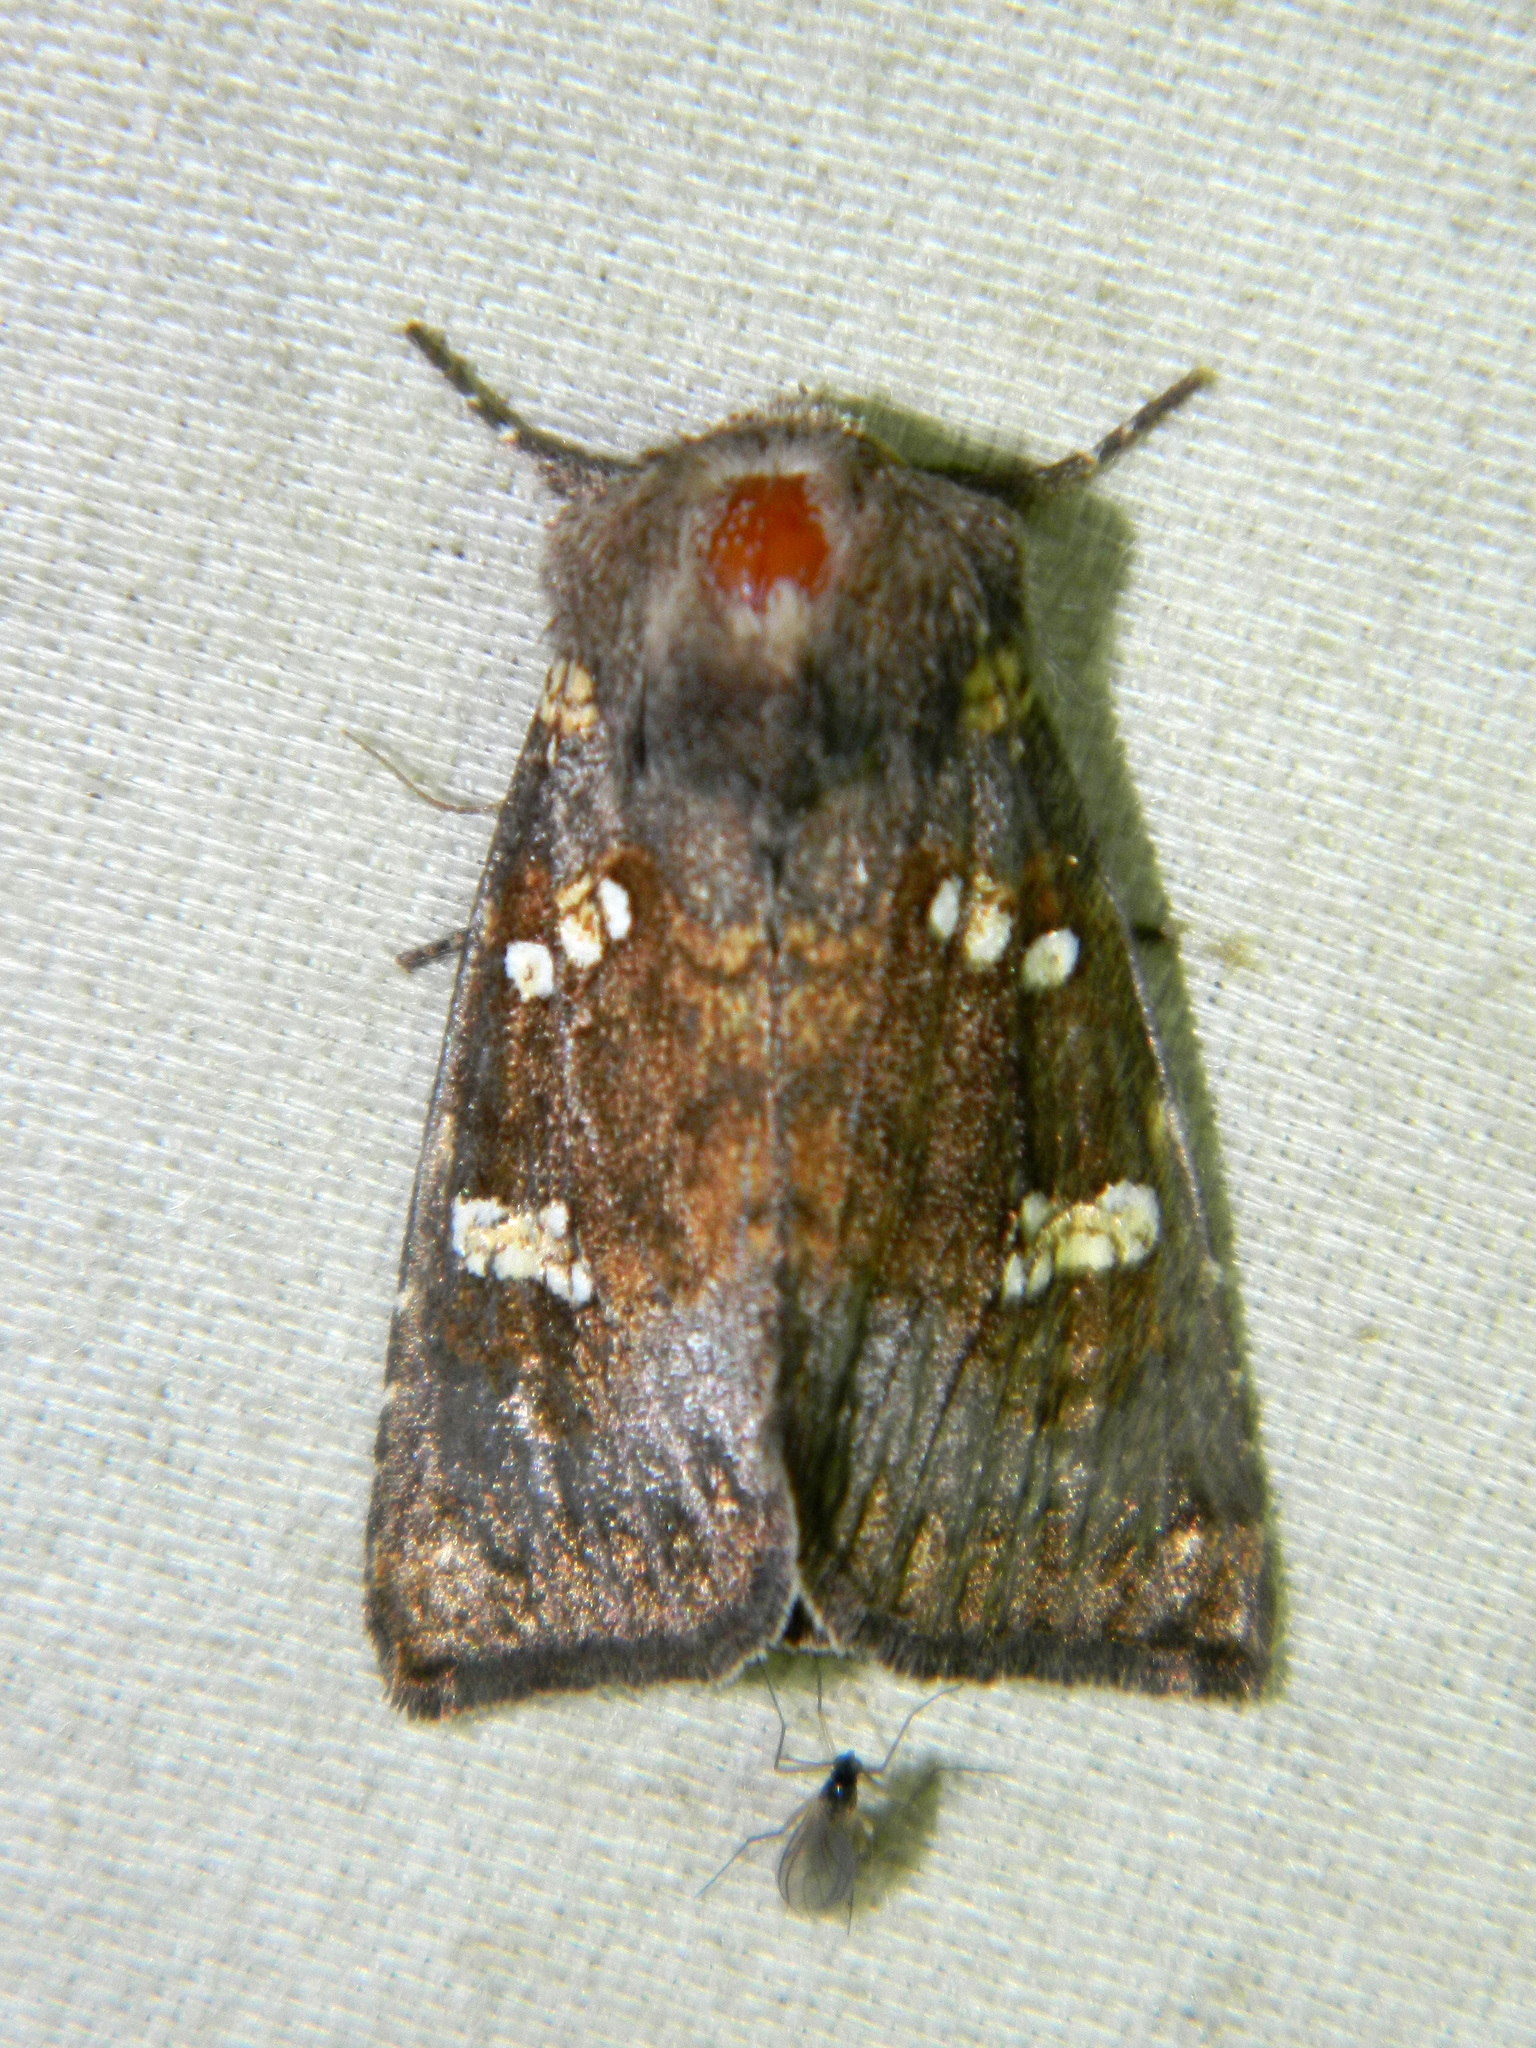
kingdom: Animalia
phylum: Arthropoda
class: Insecta
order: Lepidoptera
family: Noctuidae
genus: Papaipema
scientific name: Papaipema unimoda
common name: Meadow rue borer moth
